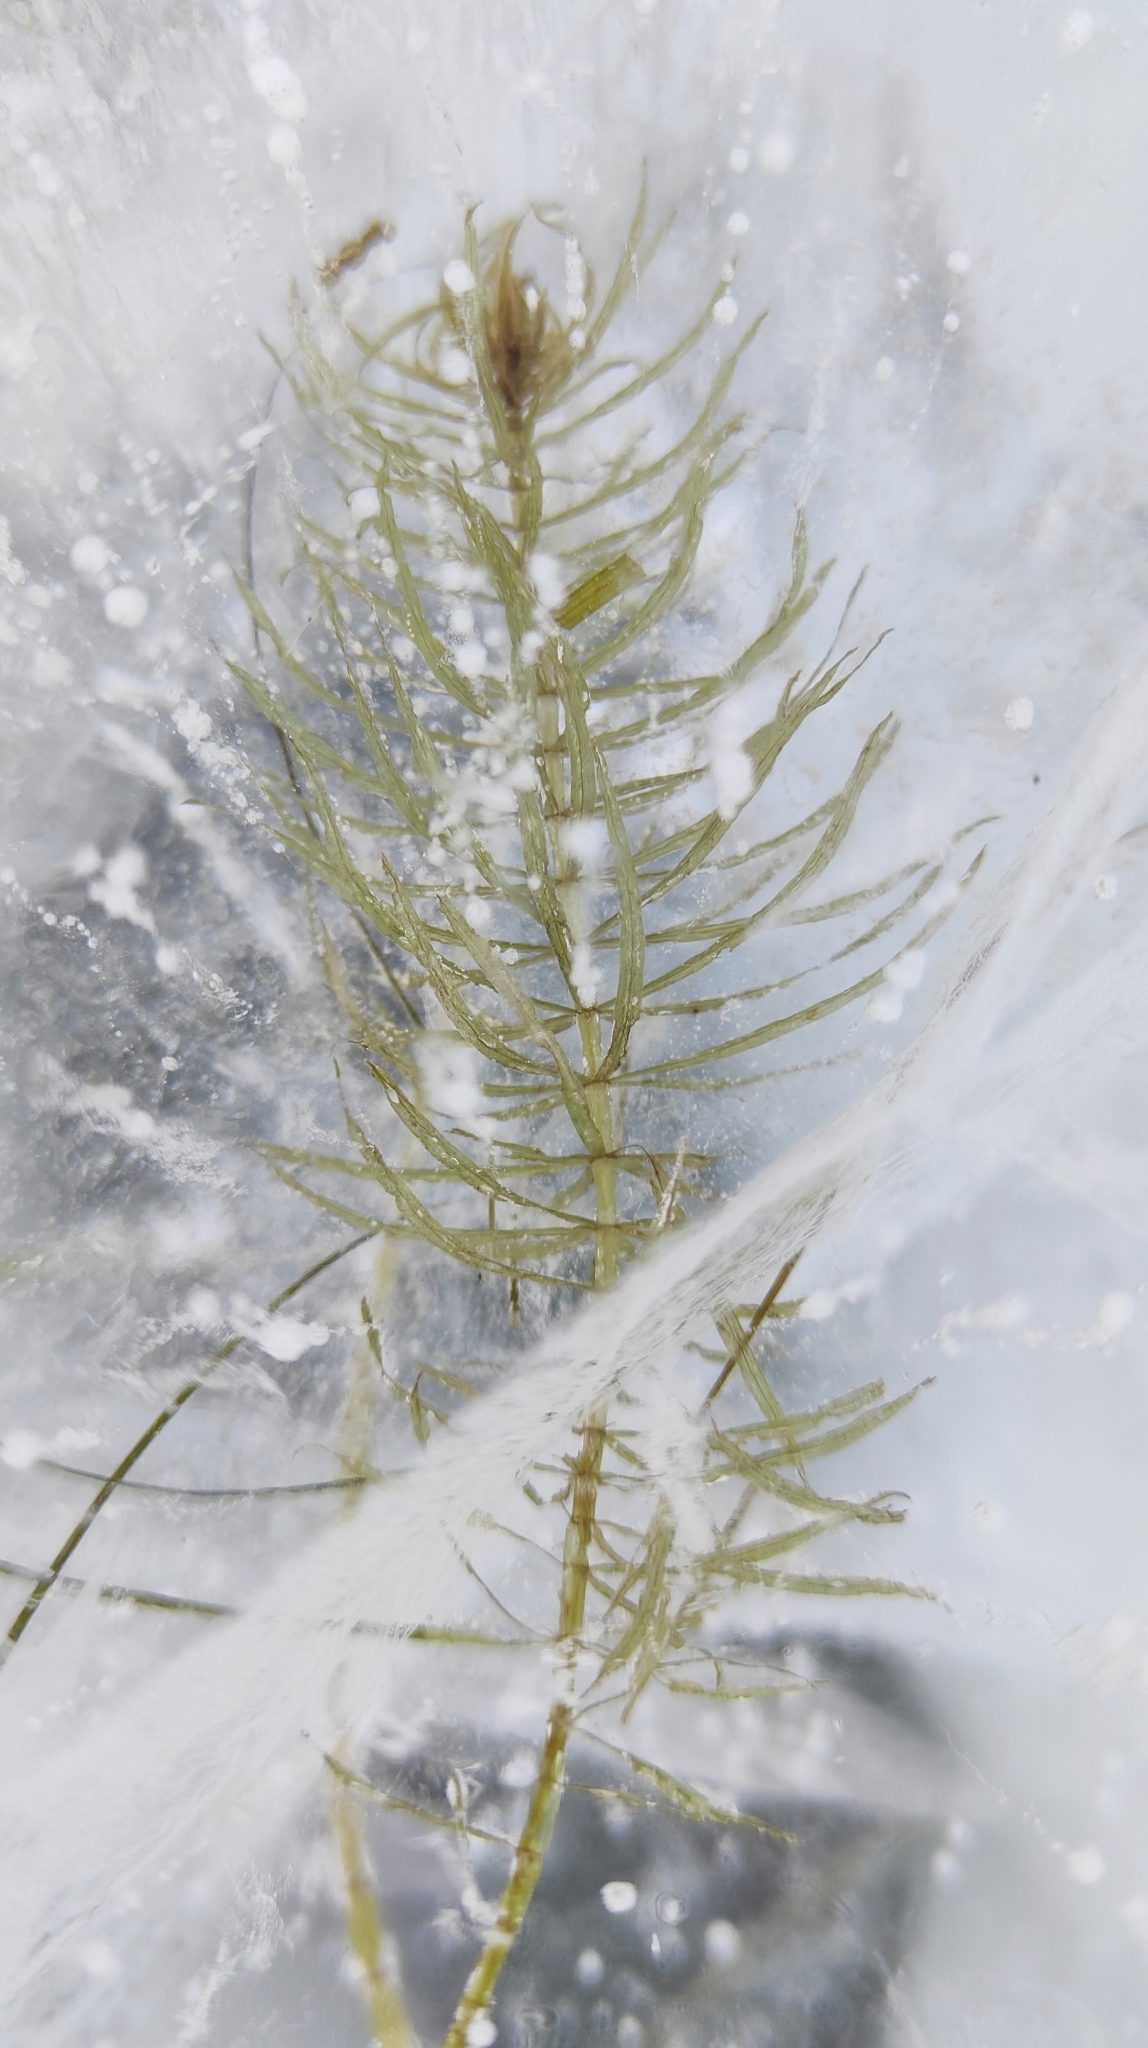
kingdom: Plantae
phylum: Tracheophyta
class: Magnoliopsida
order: Lamiales
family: Plantaginaceae
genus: Hippuris
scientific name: Hippuris vulgaris
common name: Mare's-tail
